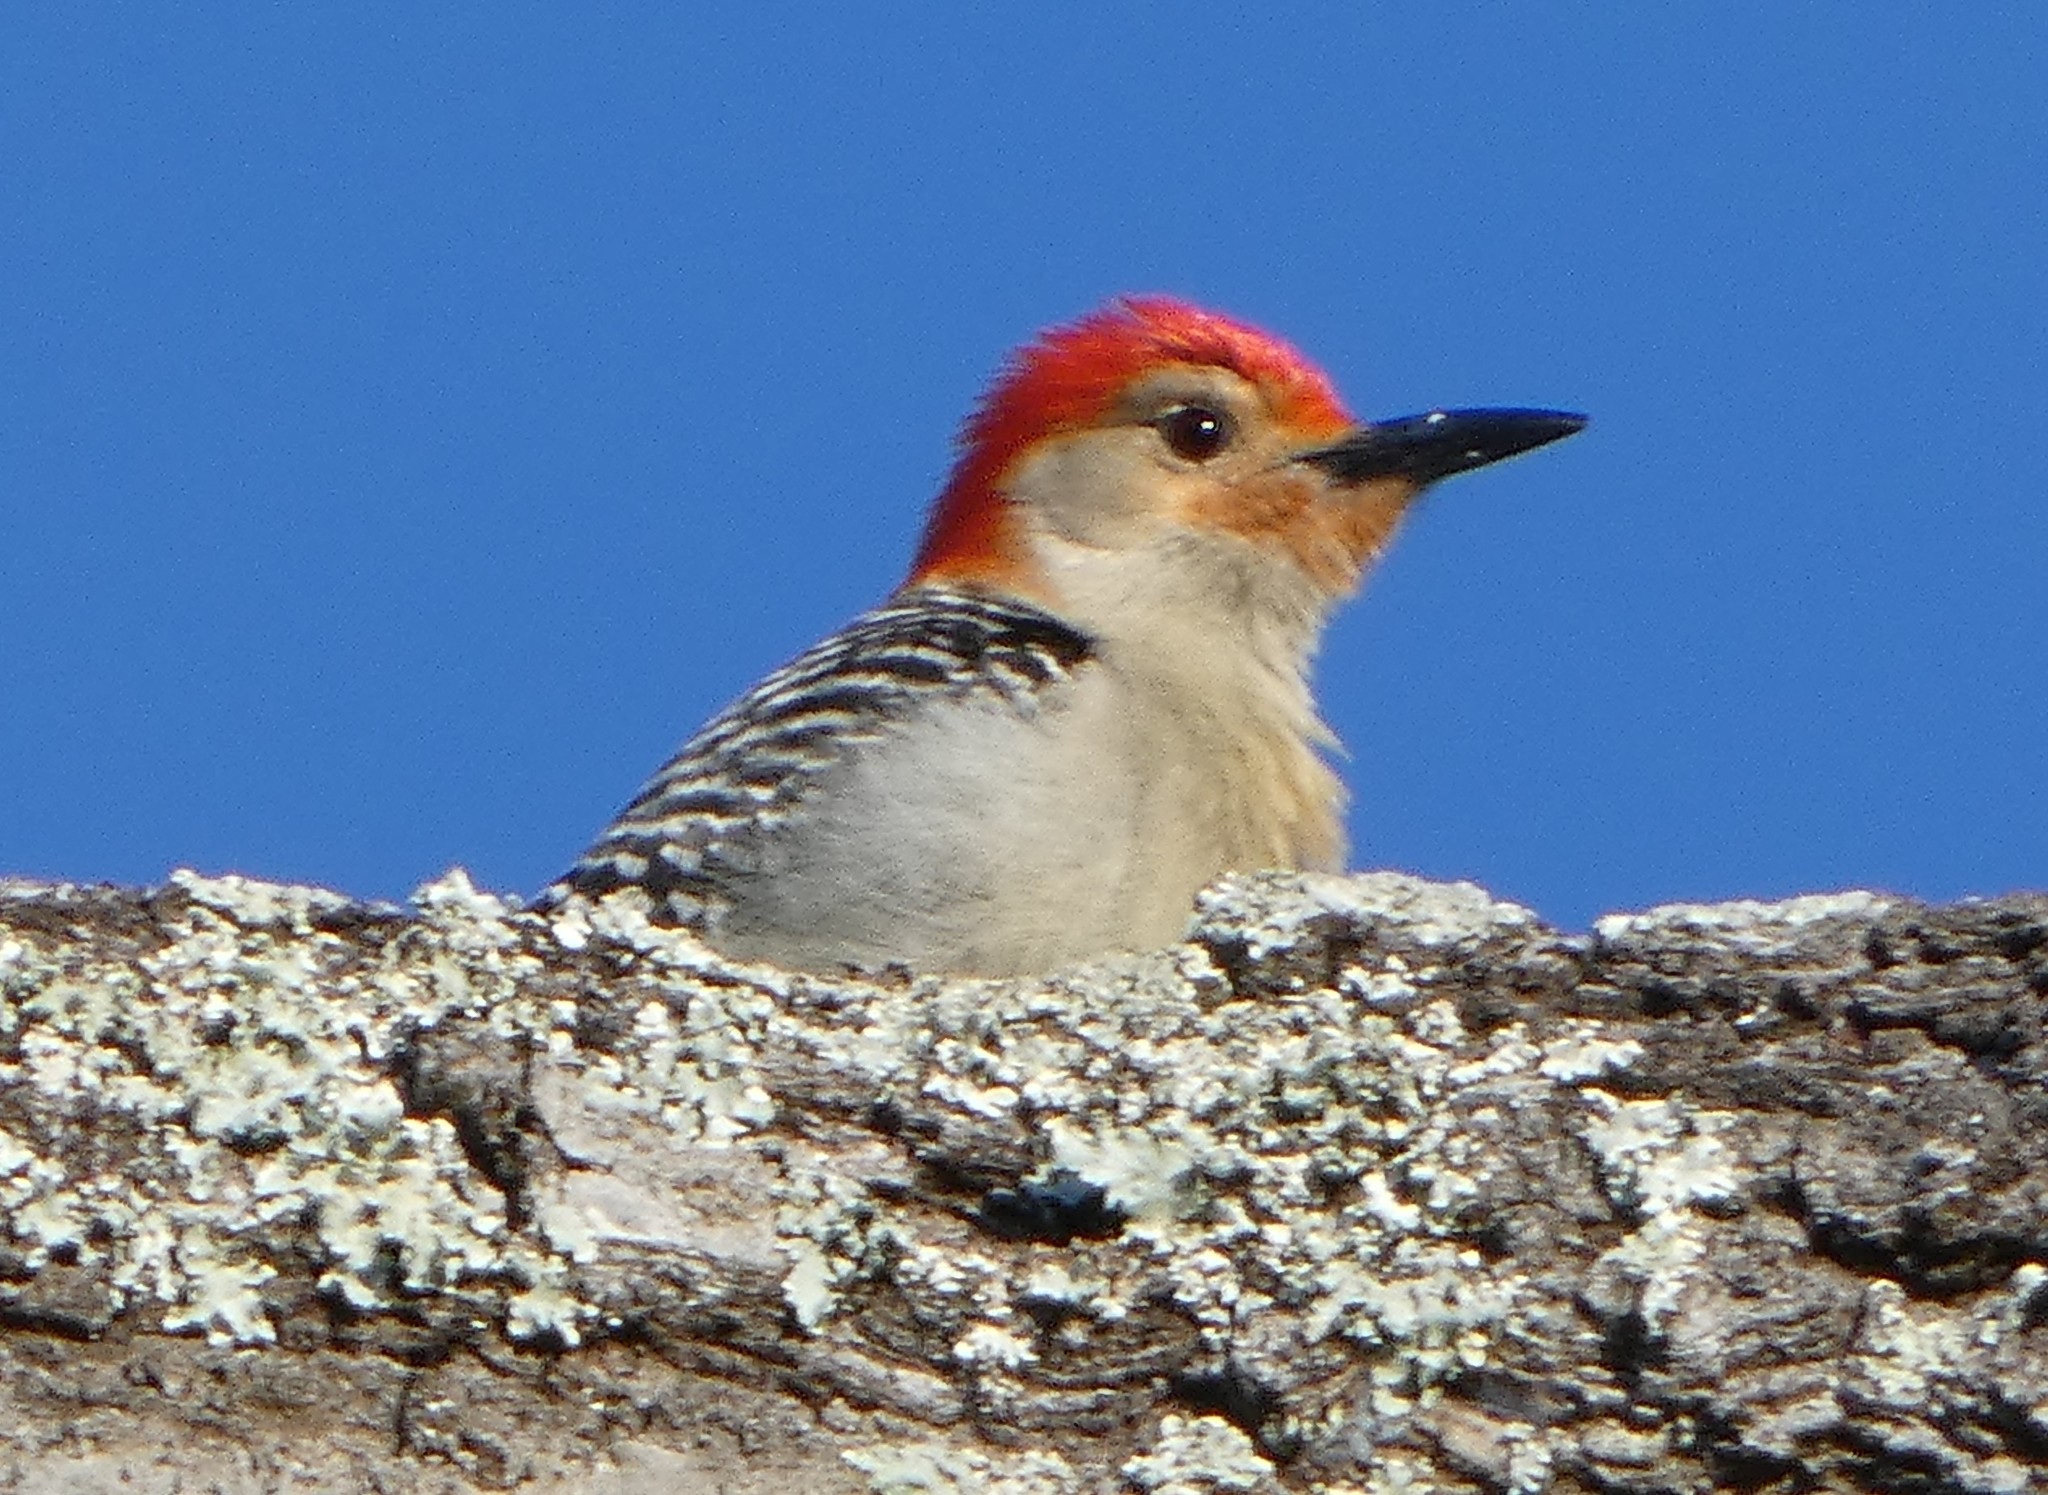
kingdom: Animalia
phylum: Chordata
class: Aves
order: Piciformes
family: Picidae
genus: Melanerpes
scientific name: Melanerpes carolinus
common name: Red-bellied woodpecker
